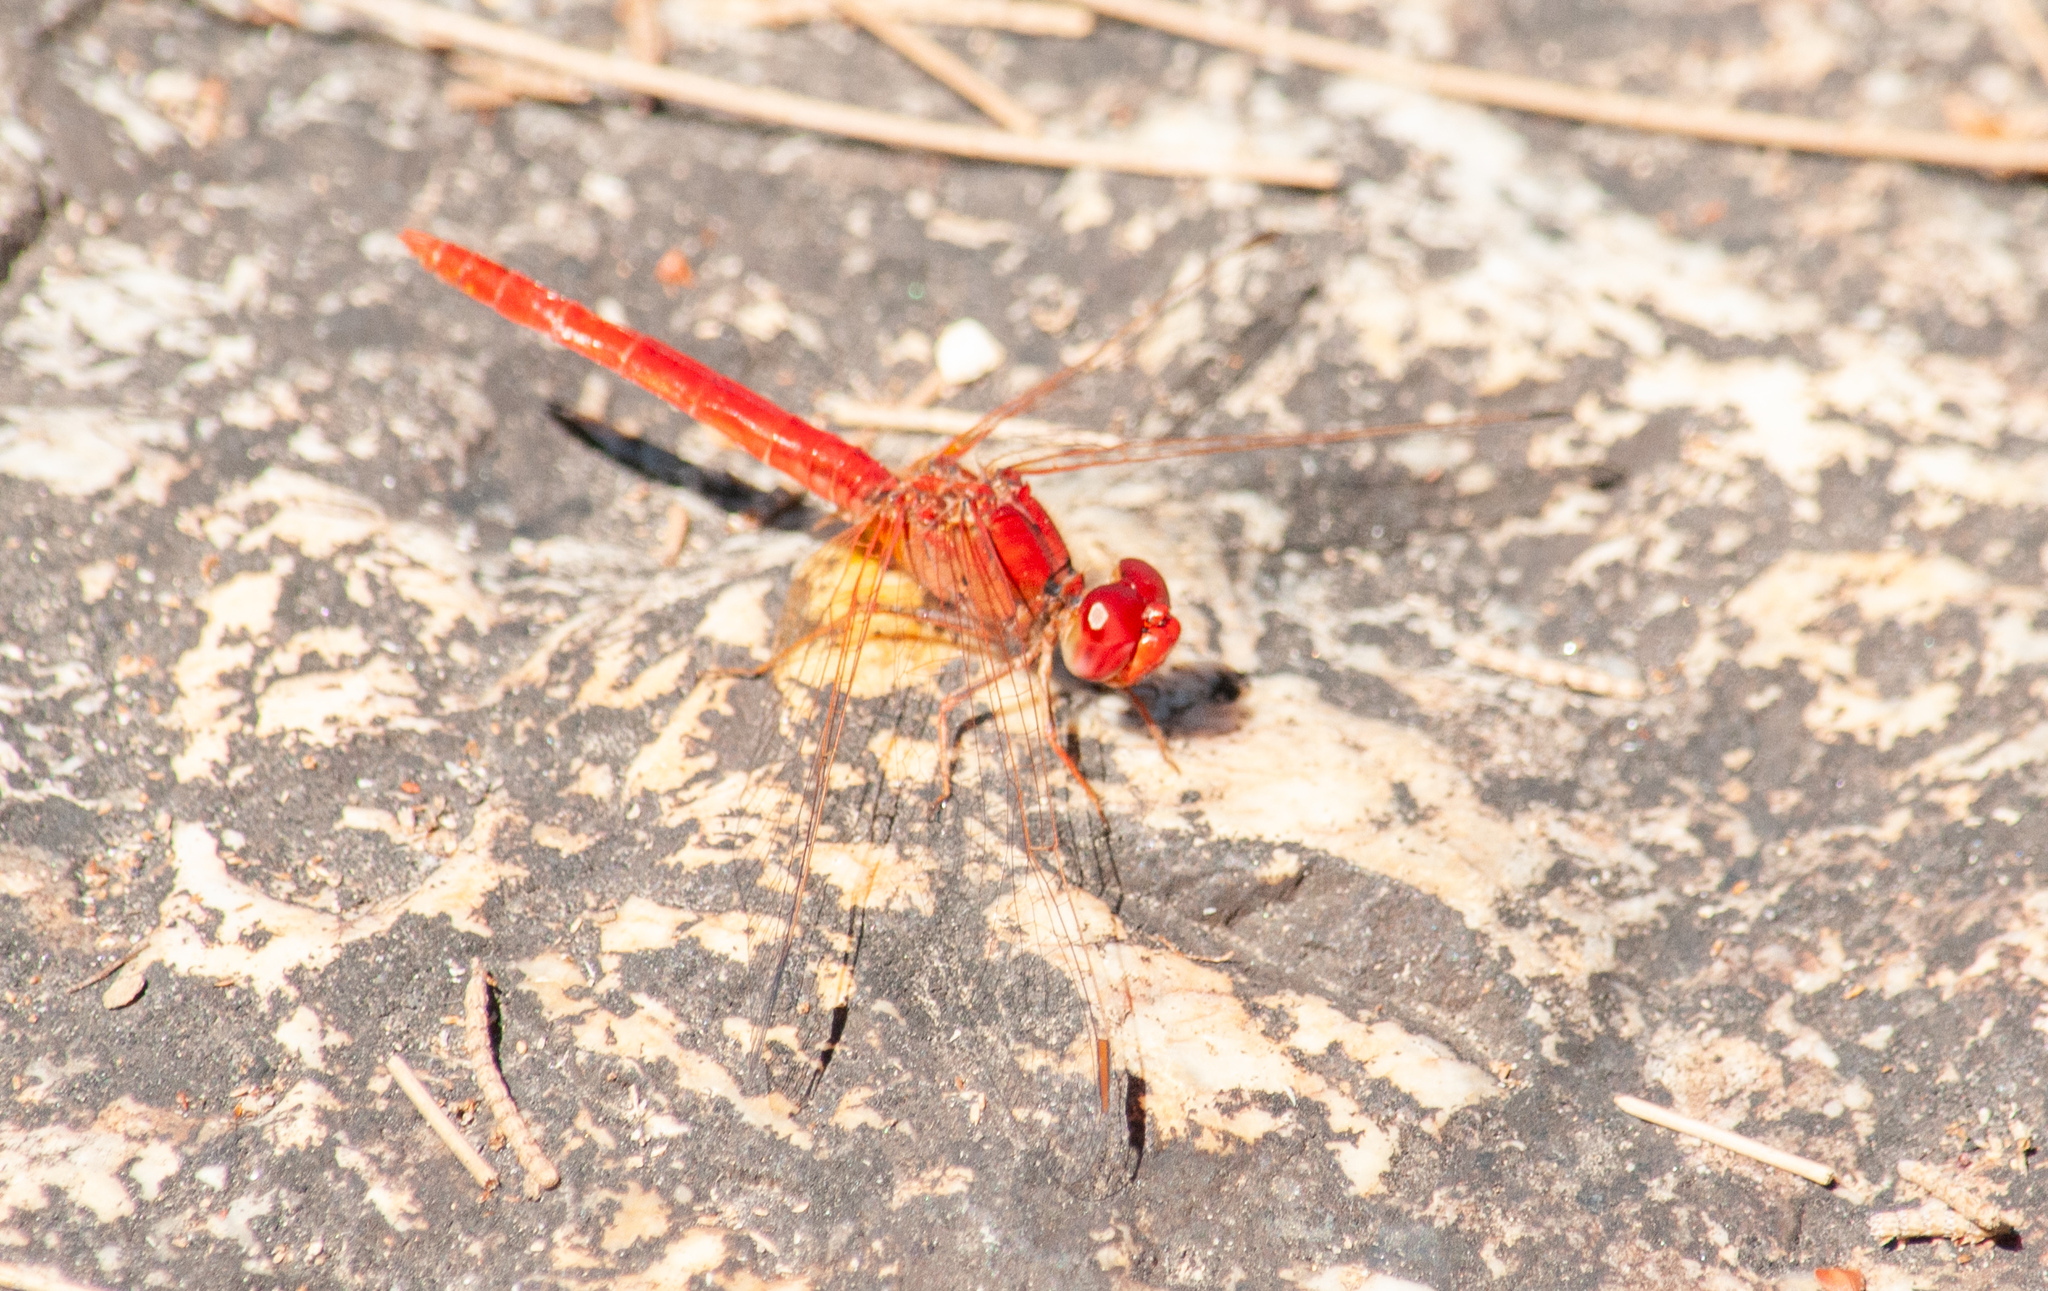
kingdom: Animalia
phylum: Arthropoda
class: Insecta
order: Odonata
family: Libellulidae
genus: Diplacodes
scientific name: Diplacodes haematodes
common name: Scarlet percher
